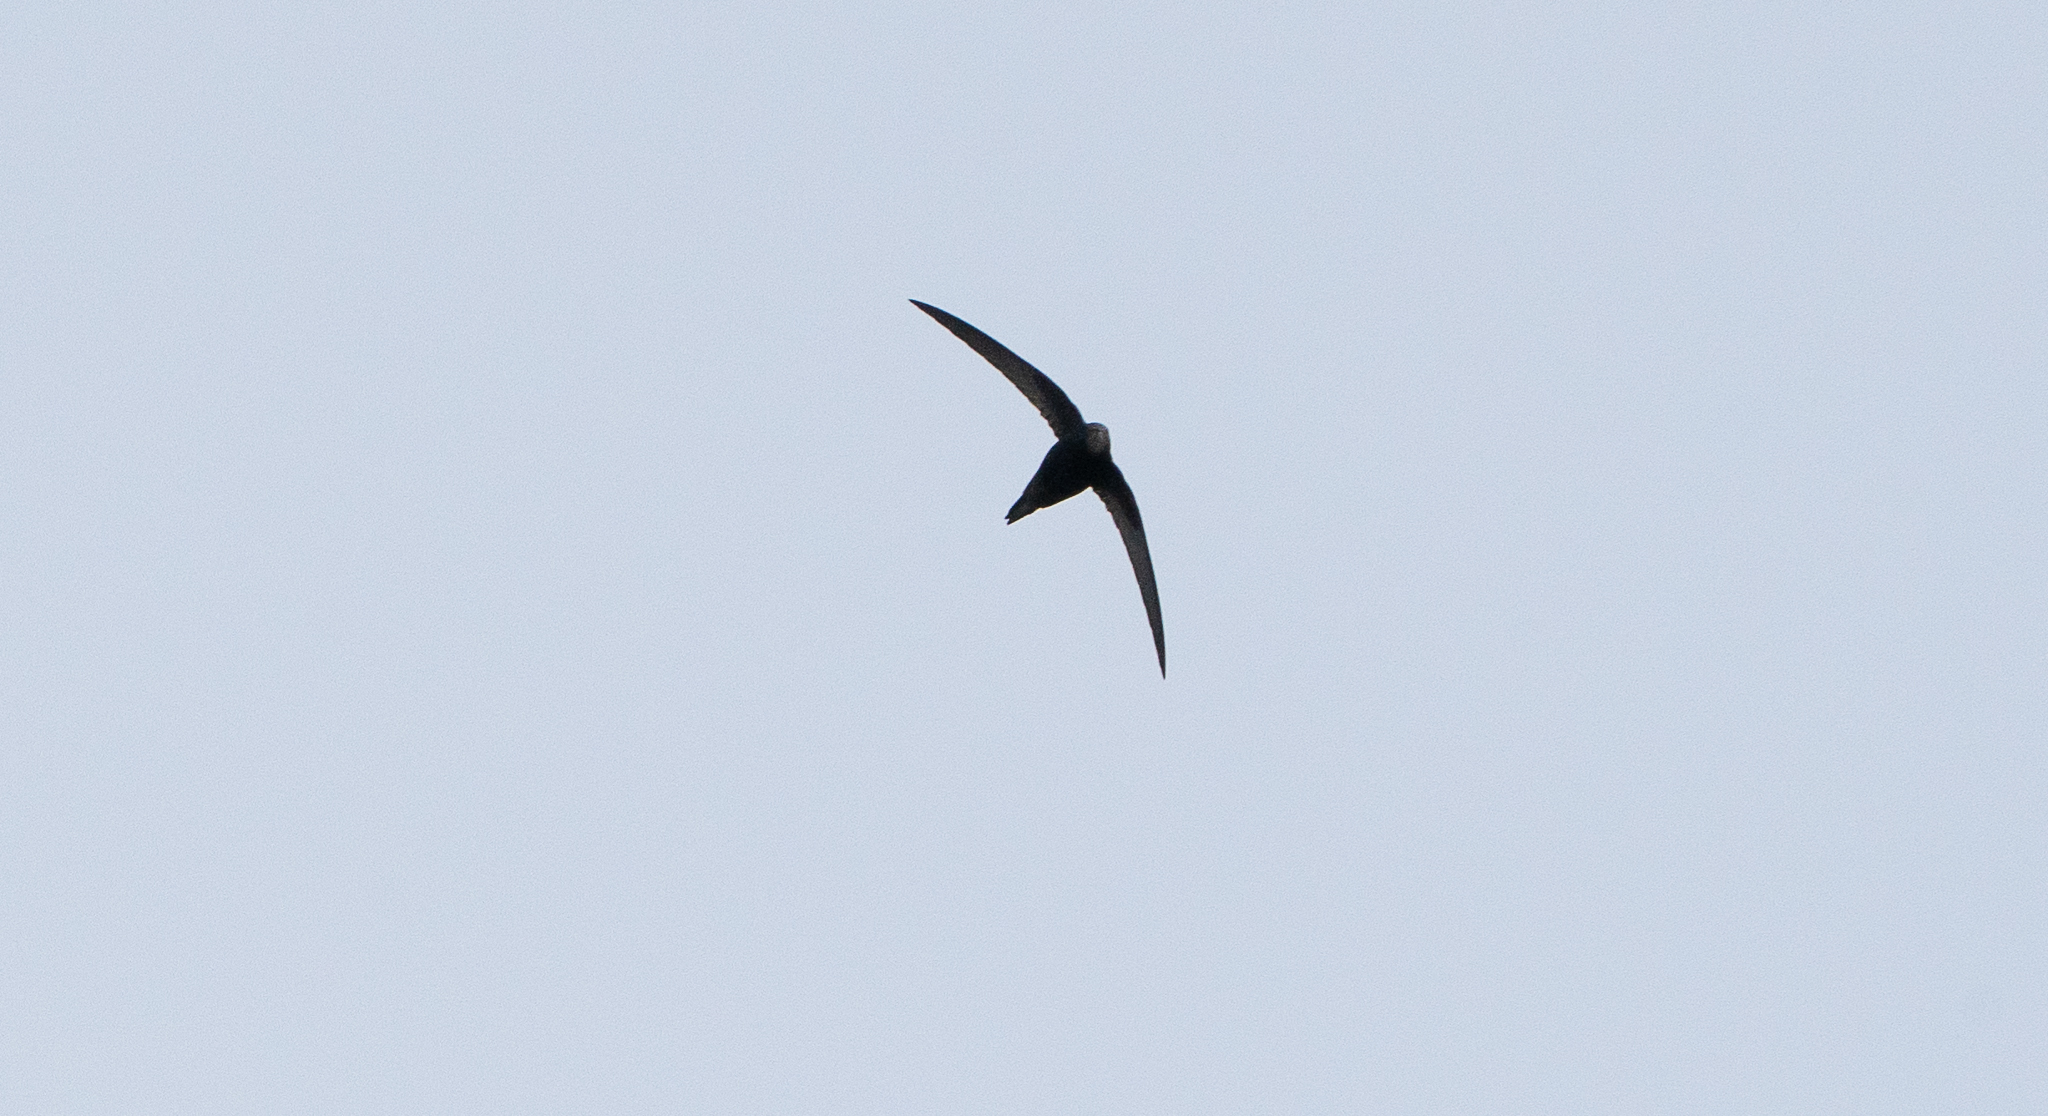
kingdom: Animalia
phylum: Chordata
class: Aves
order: Apodiformes
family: Apodidae
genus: Apus
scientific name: Apus apus
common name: Common swift
